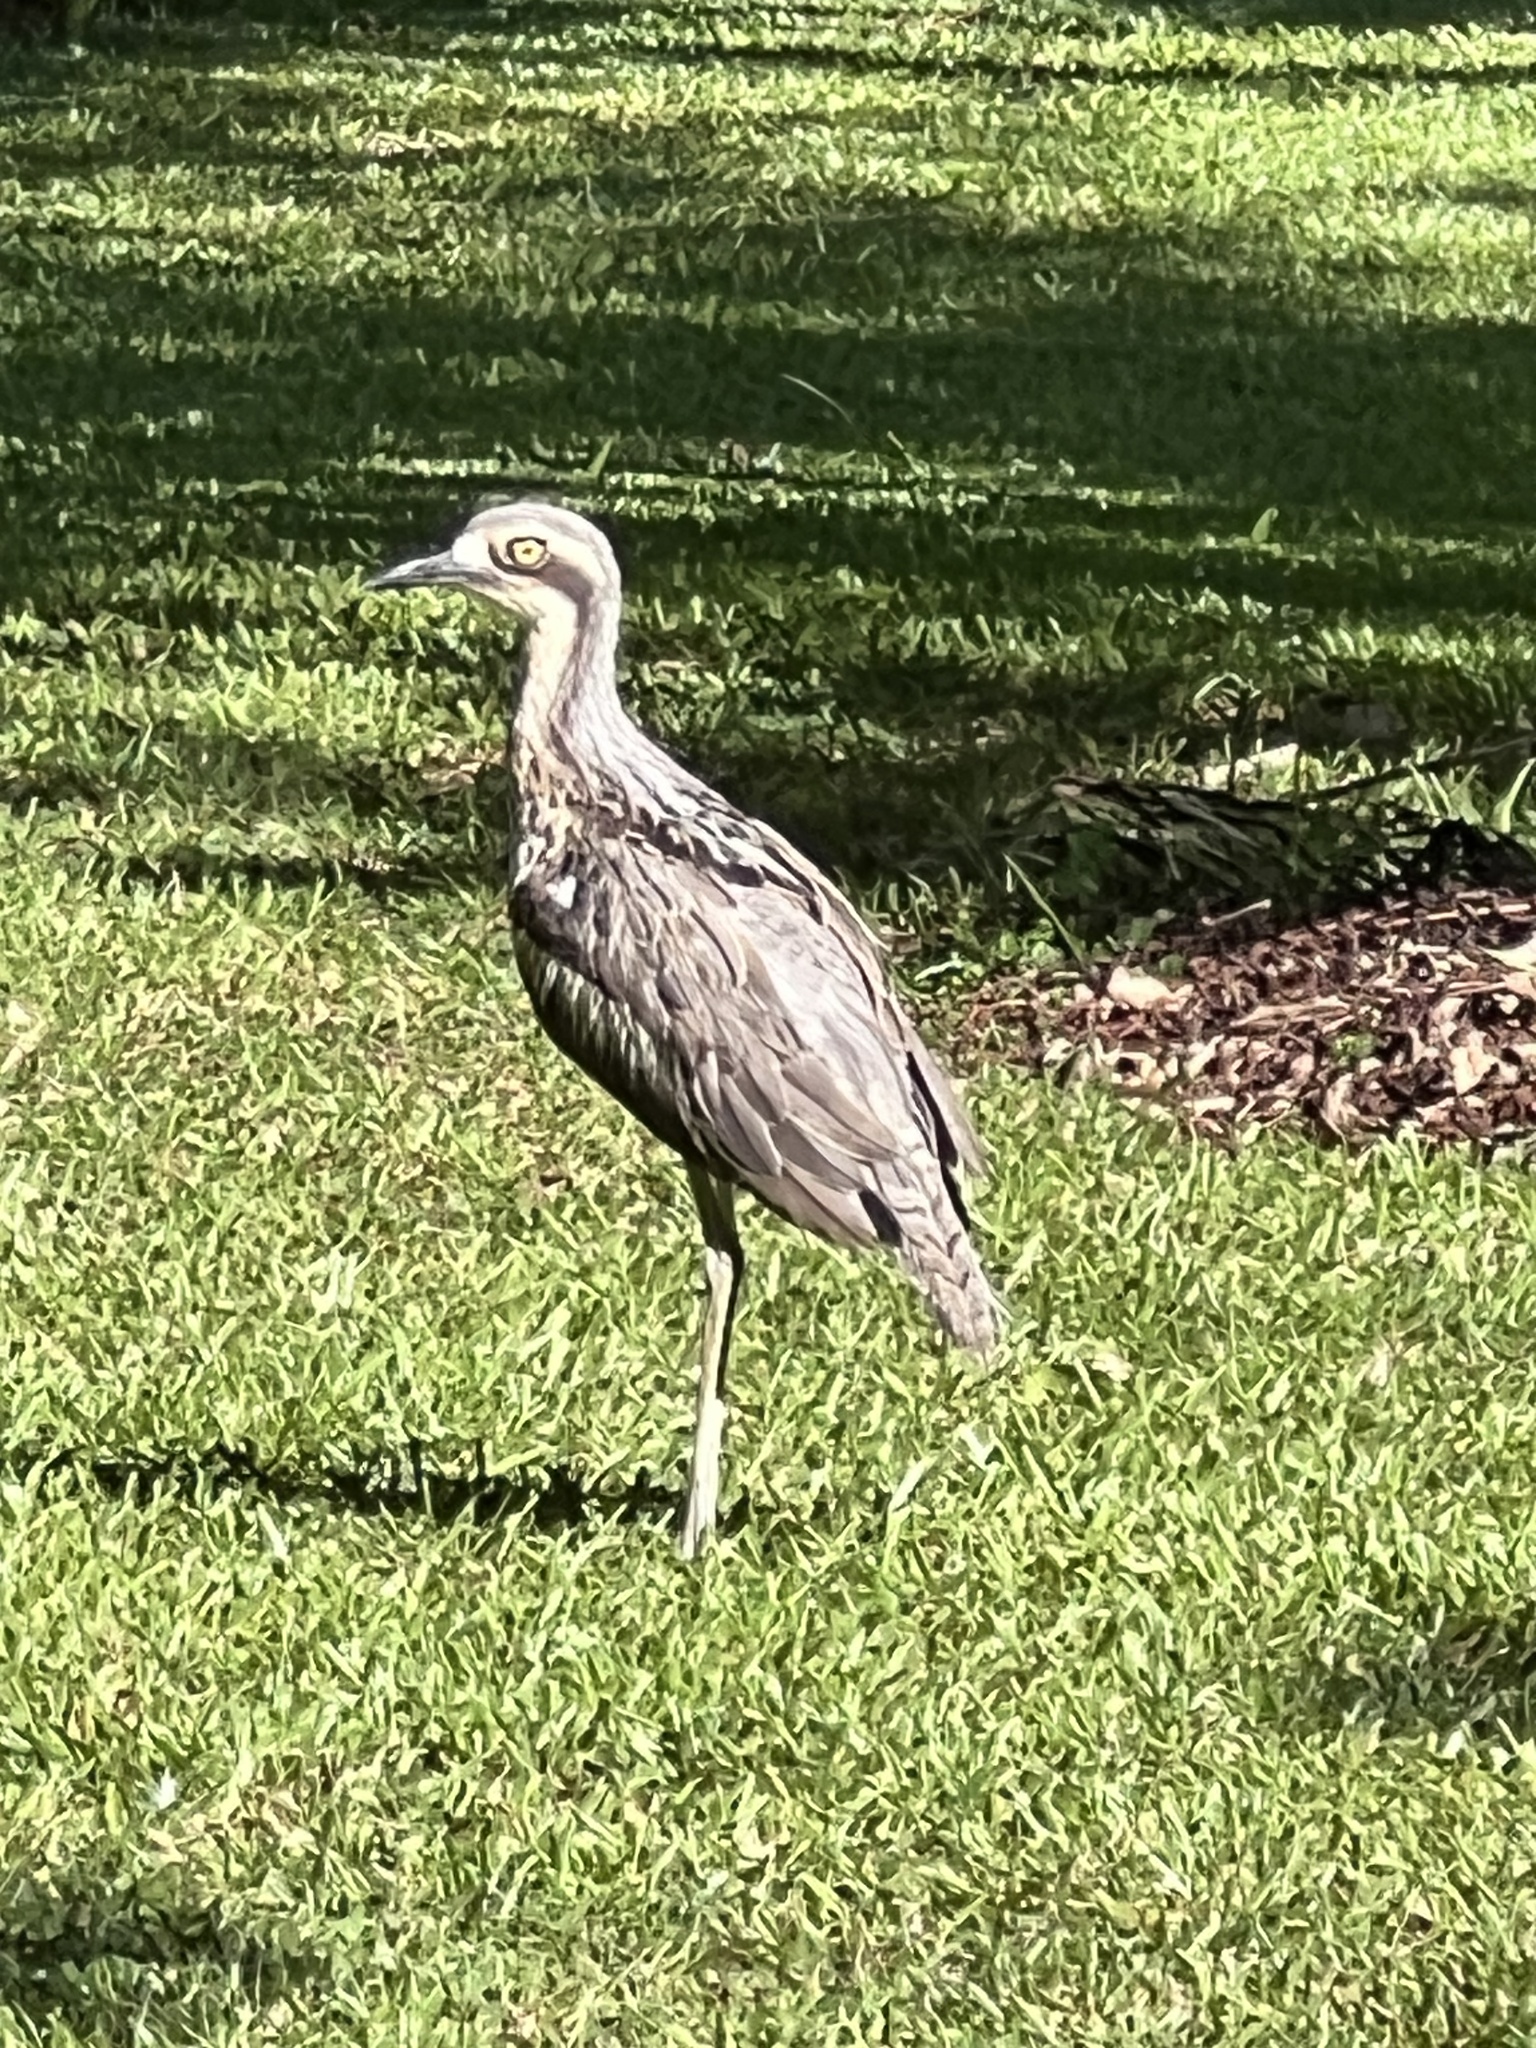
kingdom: Animalia
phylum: Chordata
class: Aves
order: Charadriiformes
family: Burhinidae
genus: Burhinus
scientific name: Burhinus grallarius
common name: Bush stone-curlew
